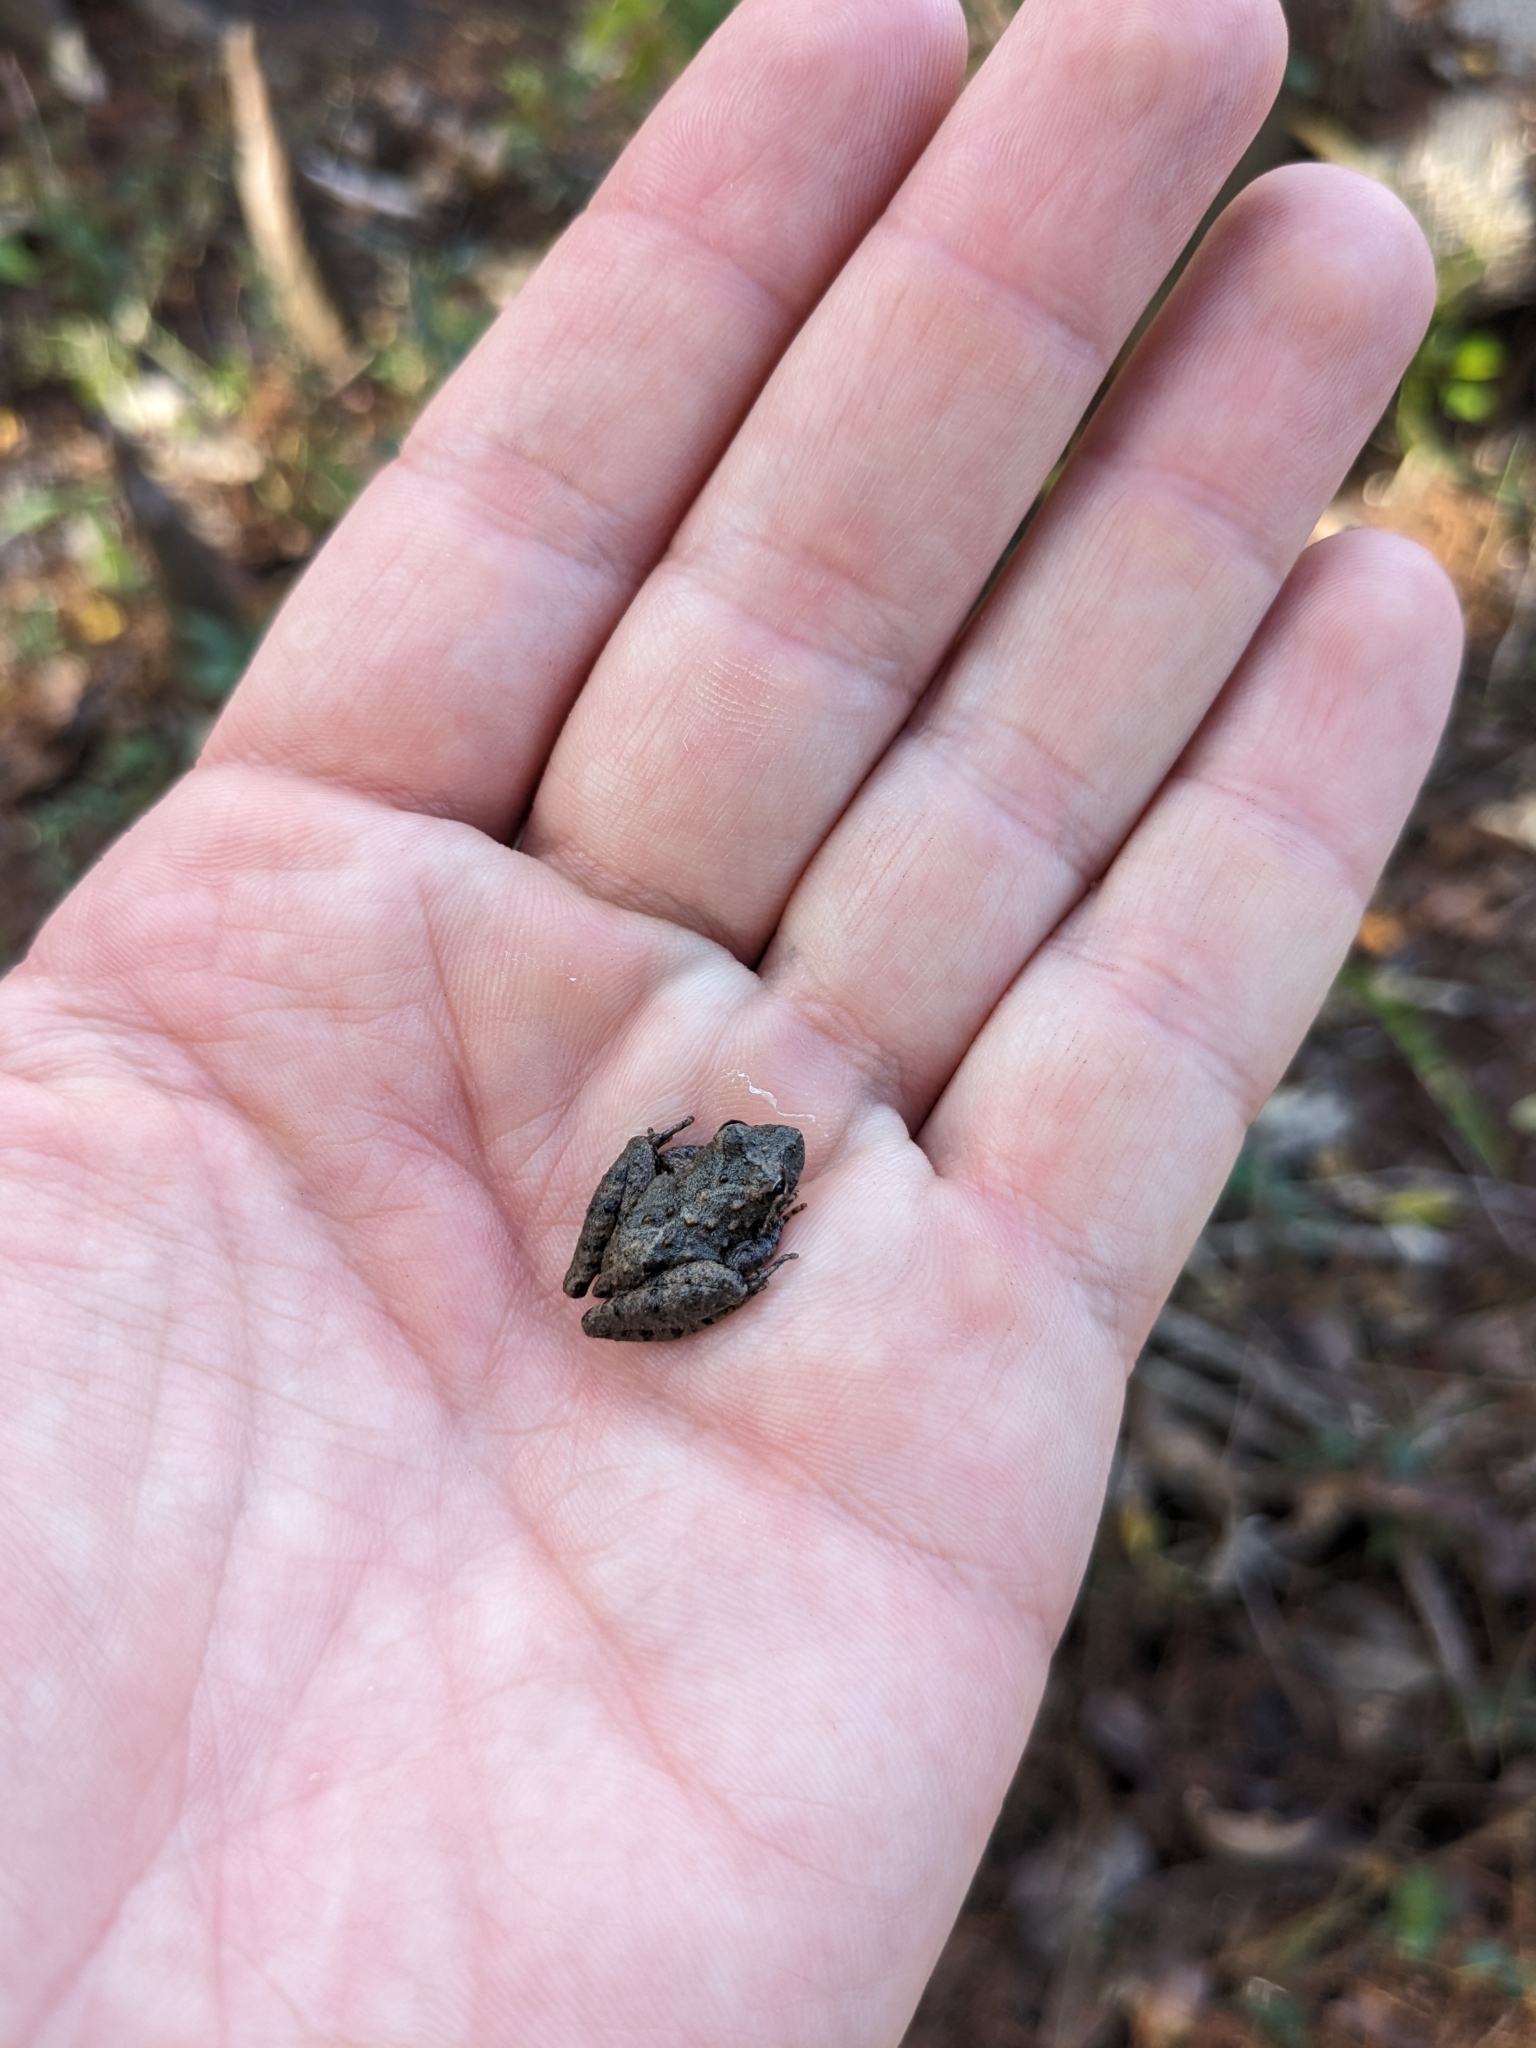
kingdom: Animalia
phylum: Chordata
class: Amphibia
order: Anura
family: Hylidae
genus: Acris
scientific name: Acris blanchardi
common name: Blanchard's cricket frog
